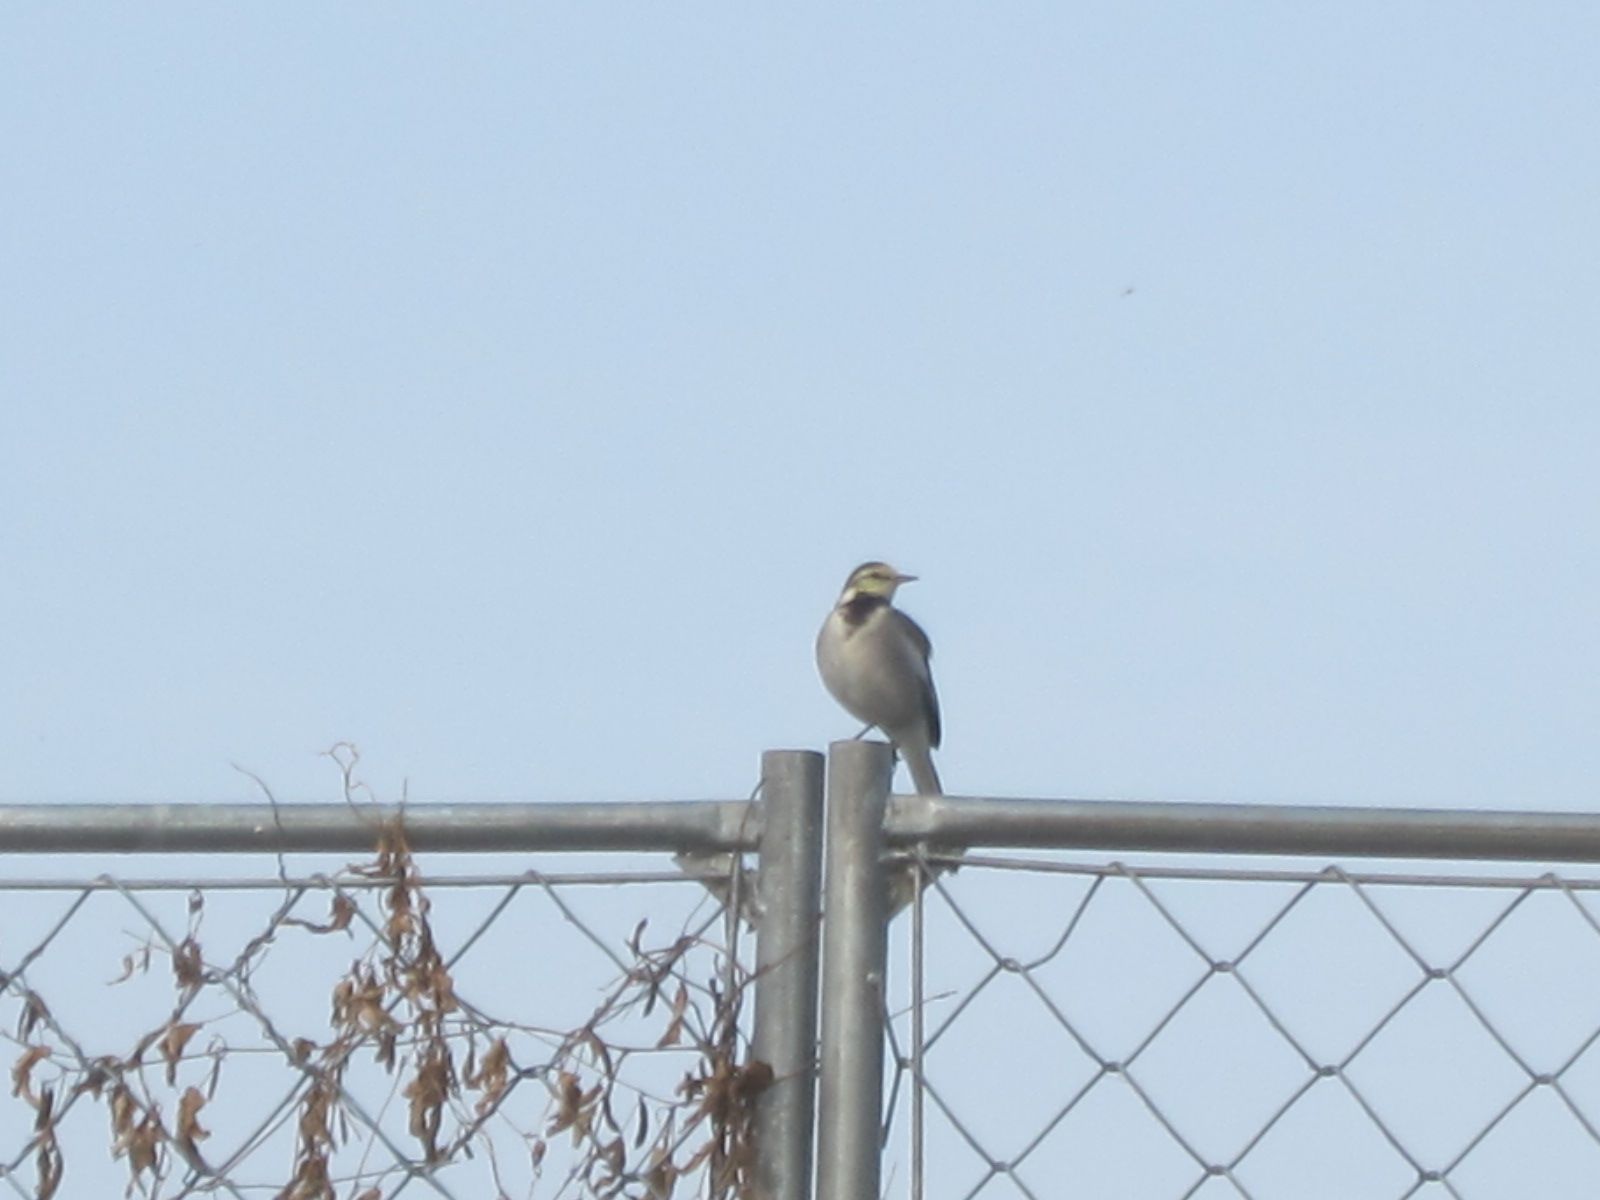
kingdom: Animalia
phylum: Chordata
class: Aves
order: Passeriformes
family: Motacillidae
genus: Motacilla
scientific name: Motacilla alba
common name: White wagtail
